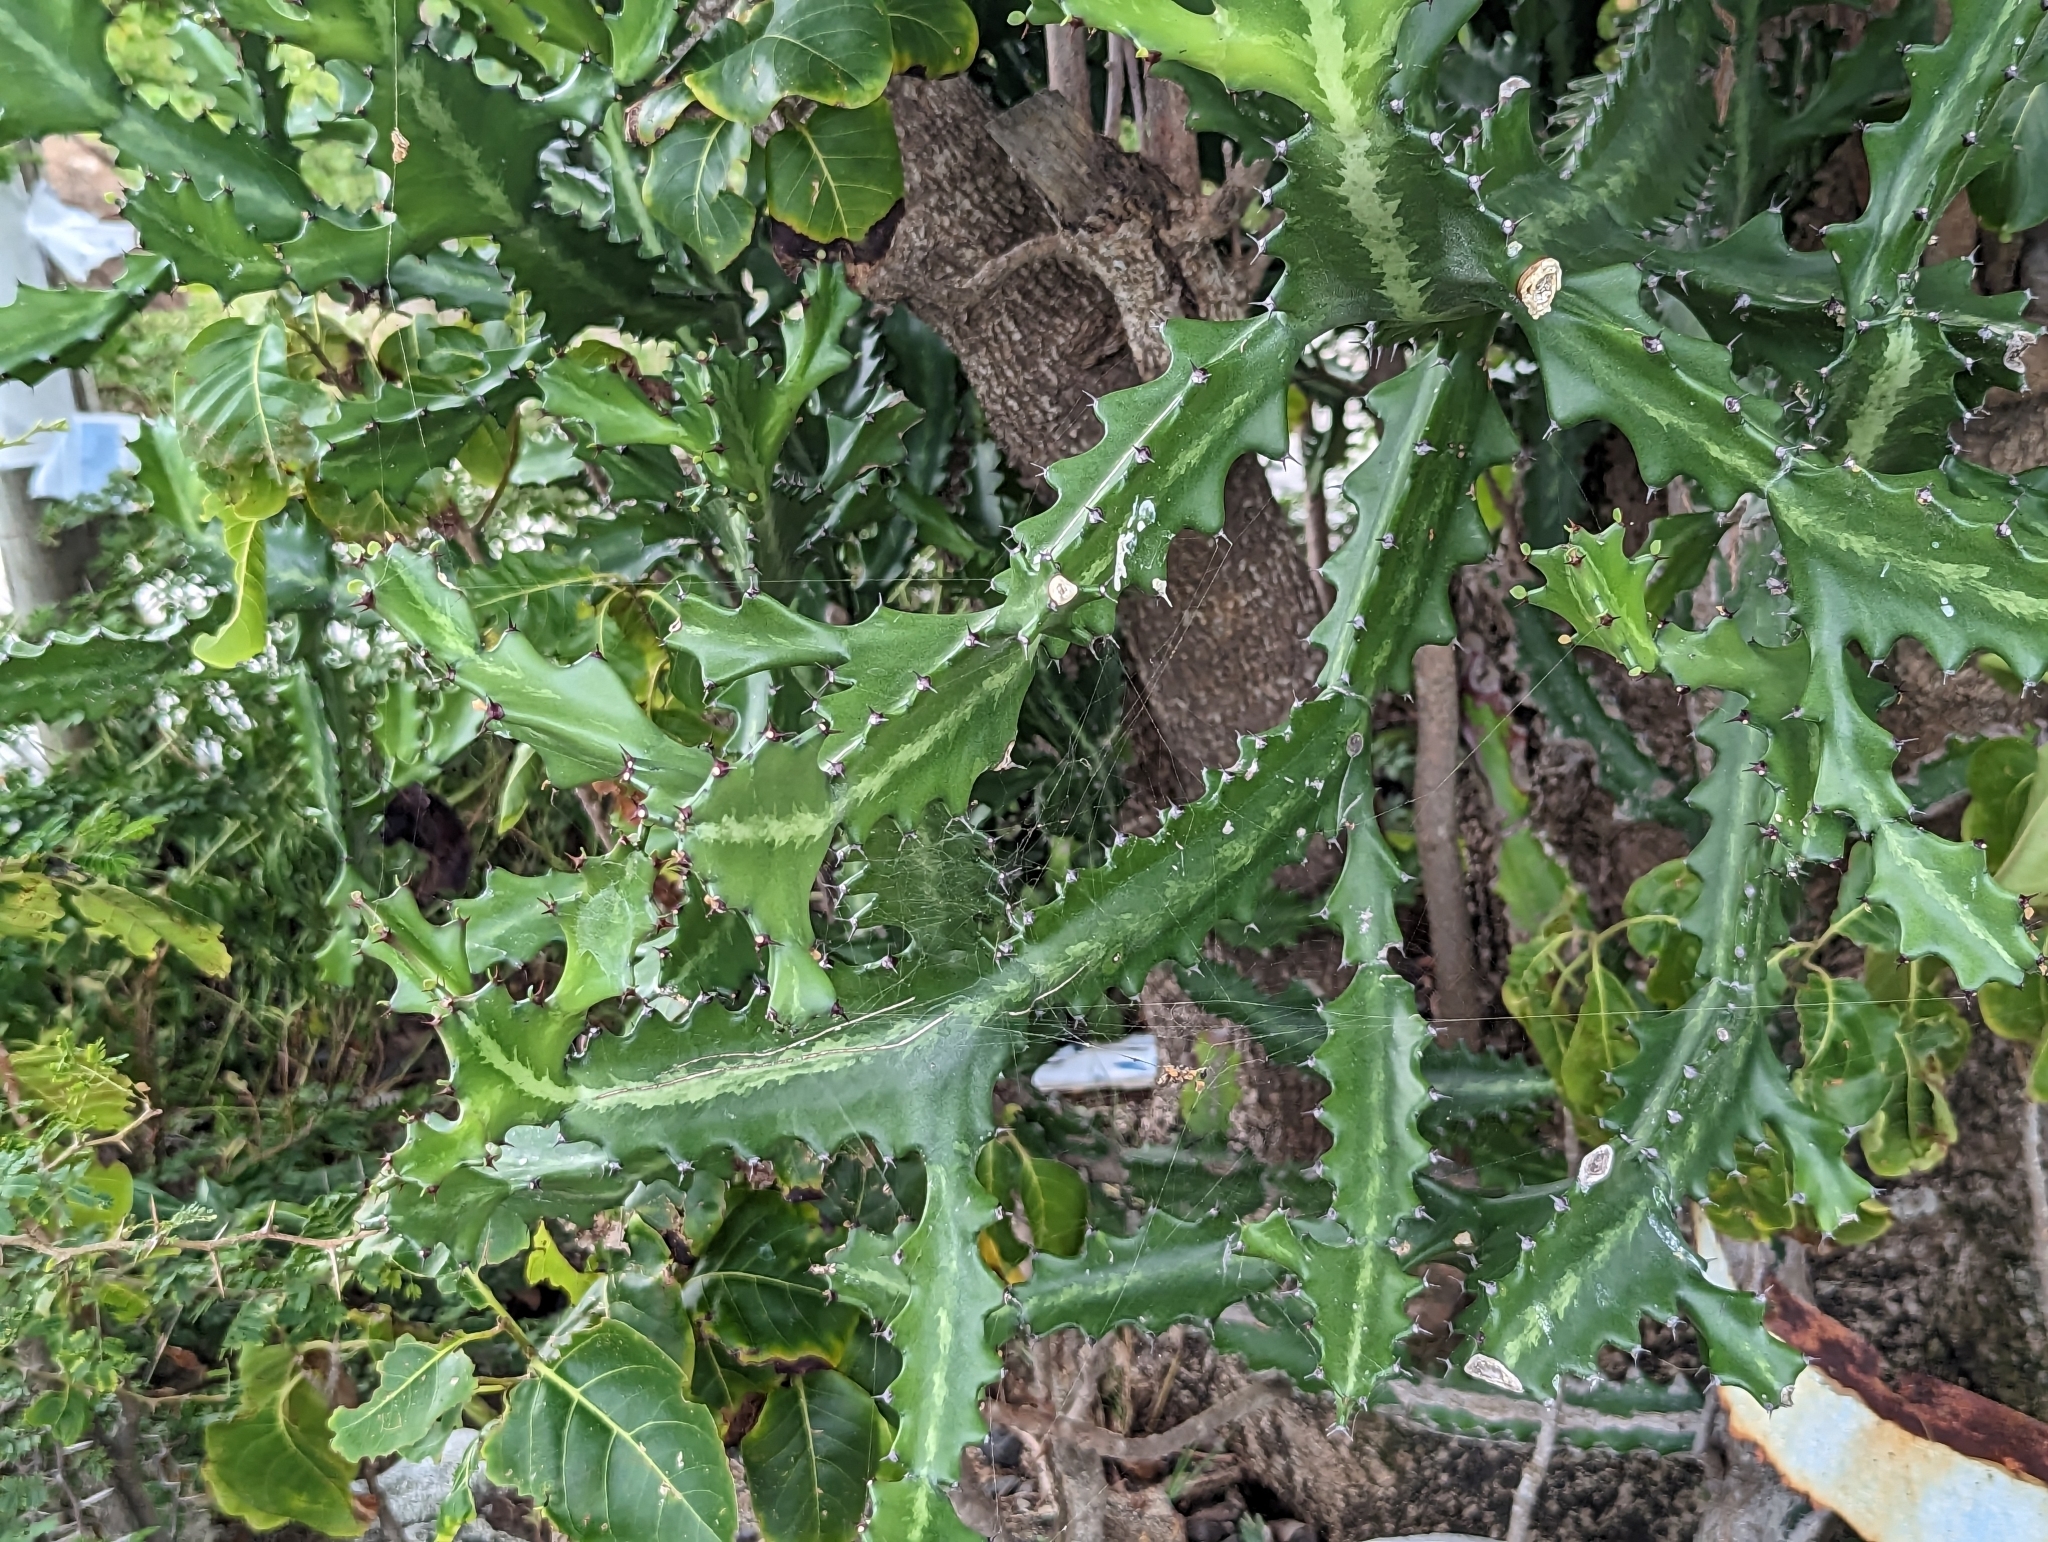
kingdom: Plantae
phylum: Tracheophyta
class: Magnoliopsida
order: Malpighiales
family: Euphorbiaceae
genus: Euphorbia
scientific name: Euphorbia lactea
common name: Mottled spurge
